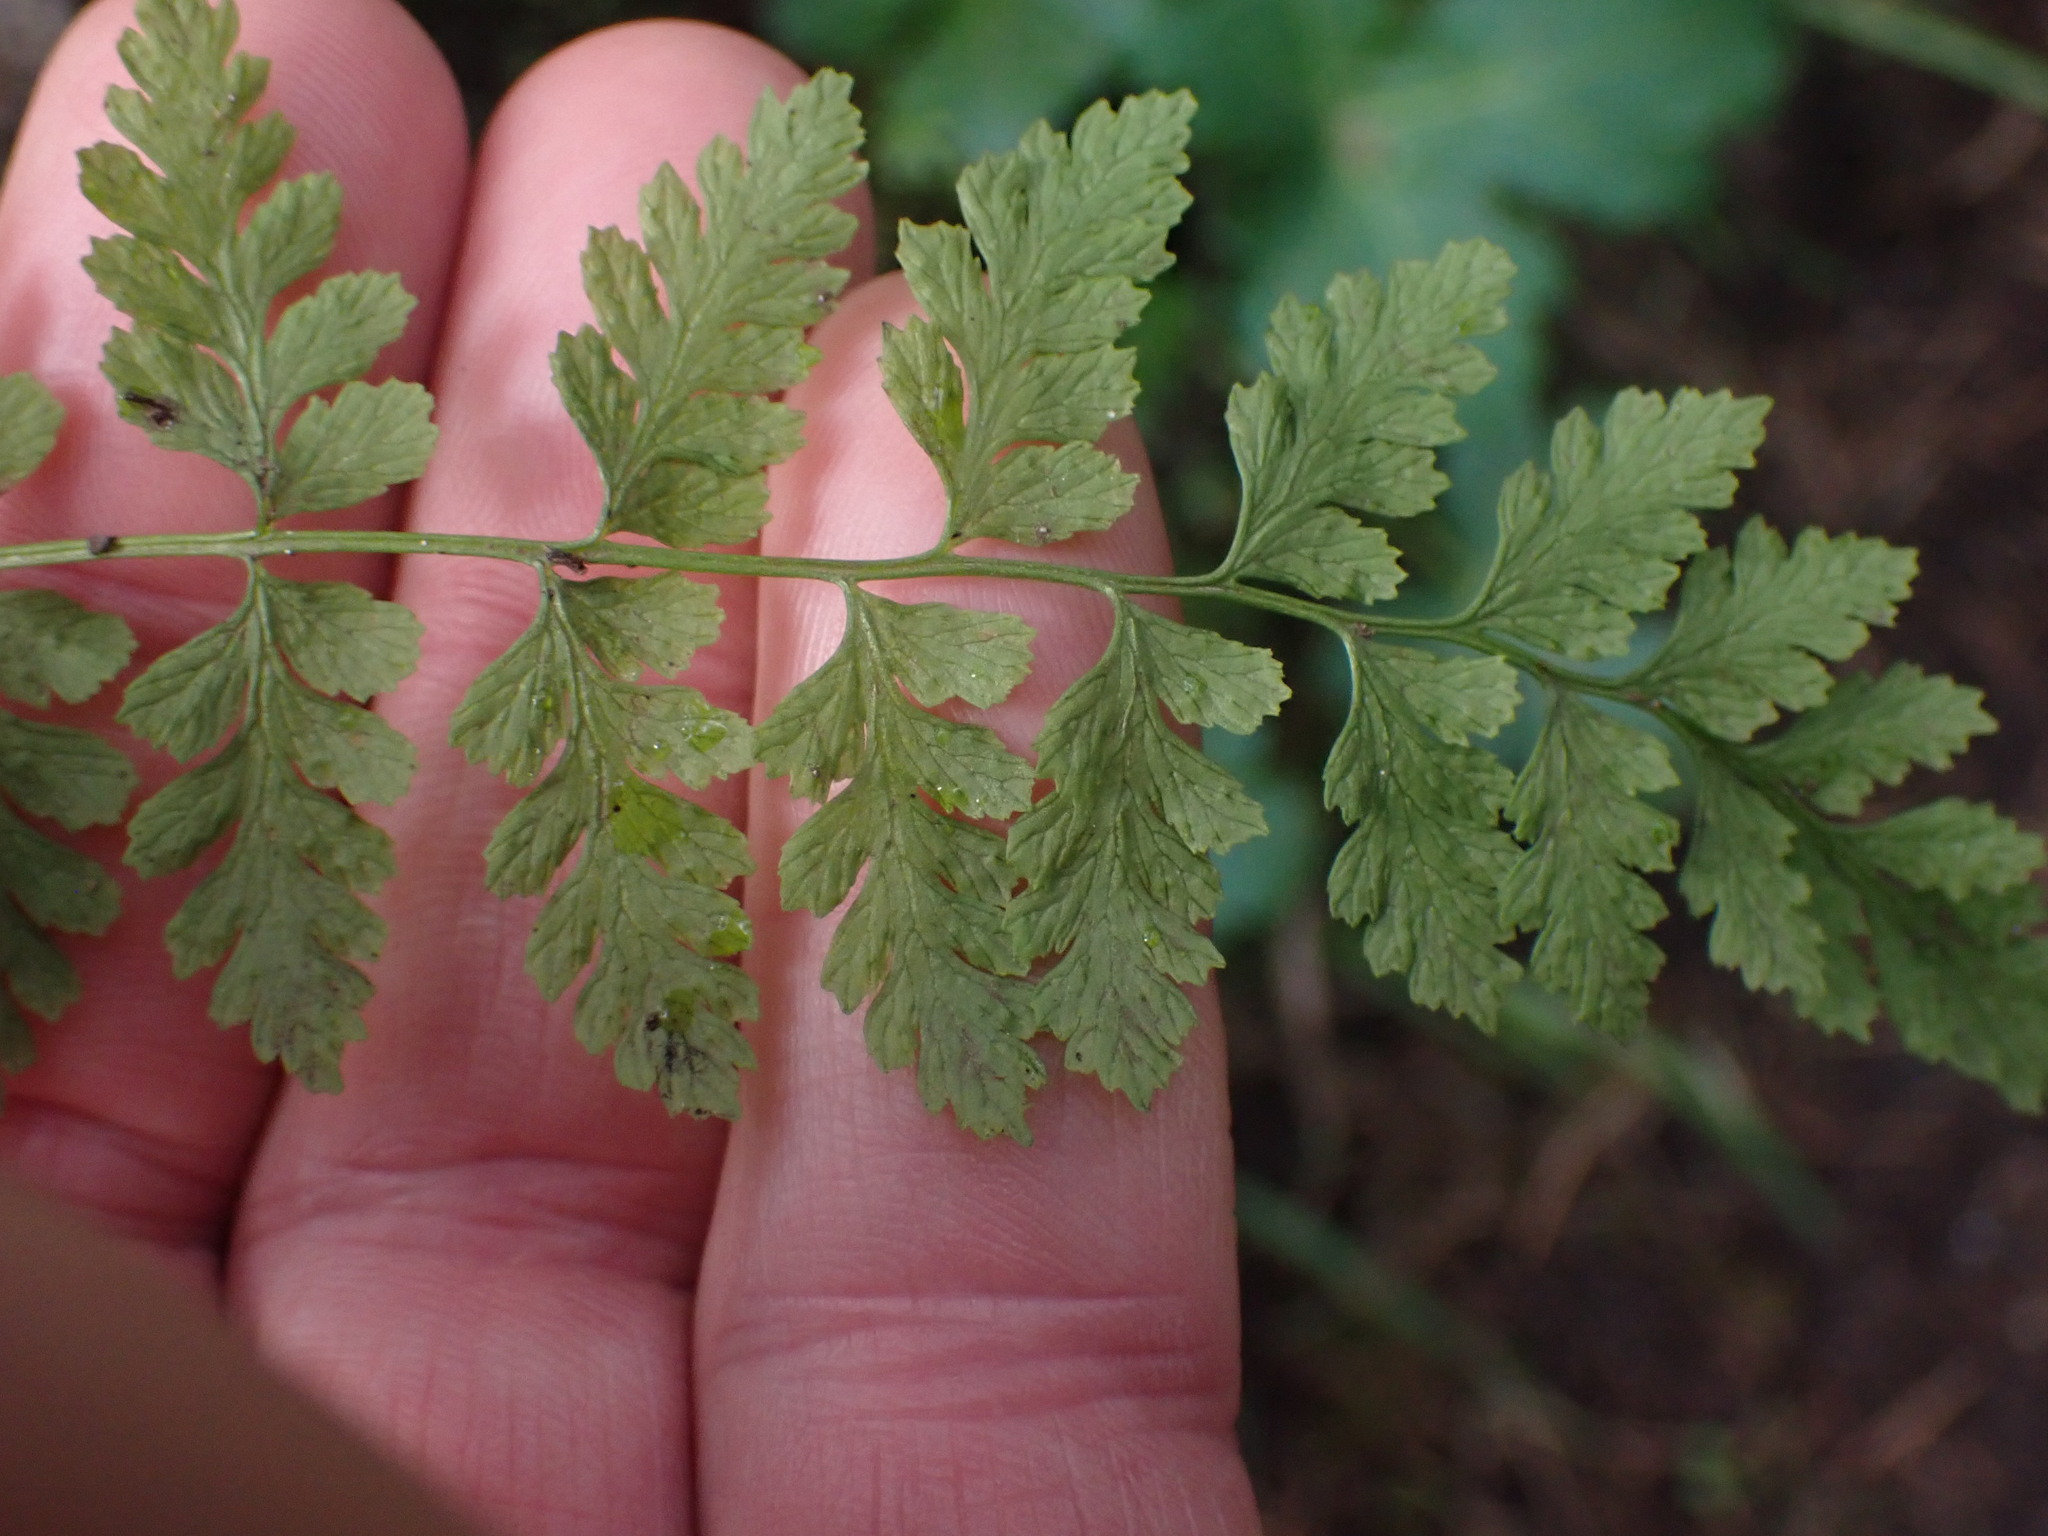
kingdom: Plantae
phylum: Tracheophyta
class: Polypodiopsida
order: Polypodiales
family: Cystopteridaceae
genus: Cystopteris
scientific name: Cystopteris fragilis
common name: Brittle bladder fern
